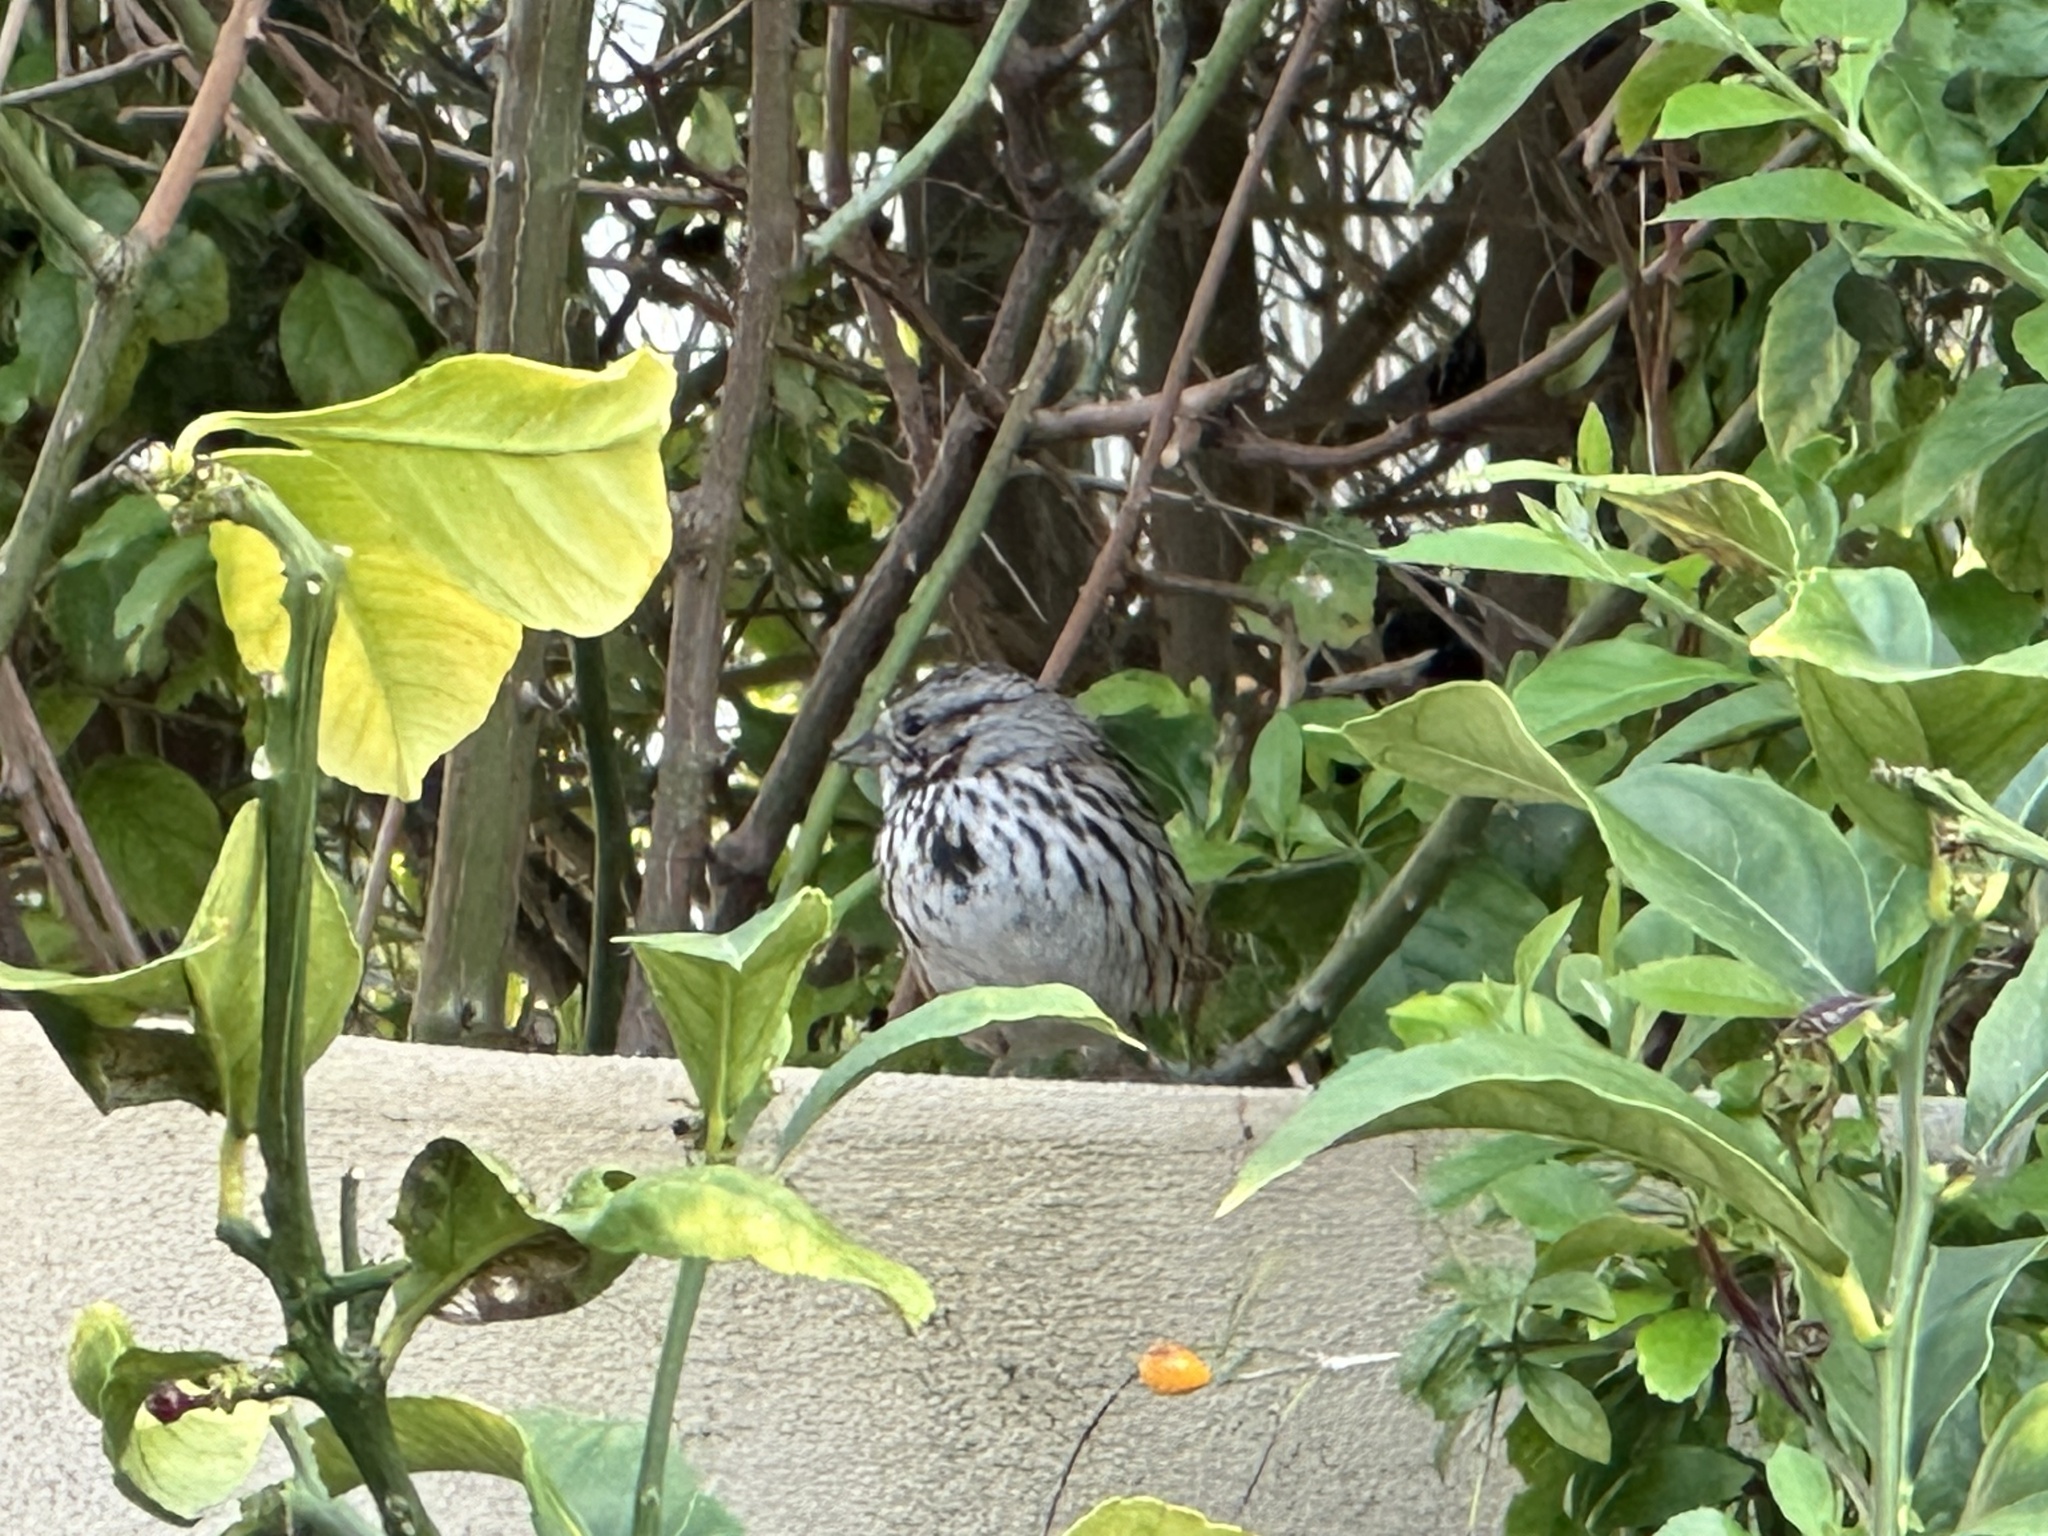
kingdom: Animalia
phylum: Chordata
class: Aves
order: Passeriformes
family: Passerellidae
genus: Melospiza
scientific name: Melospiza melodia
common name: Song sparrow
